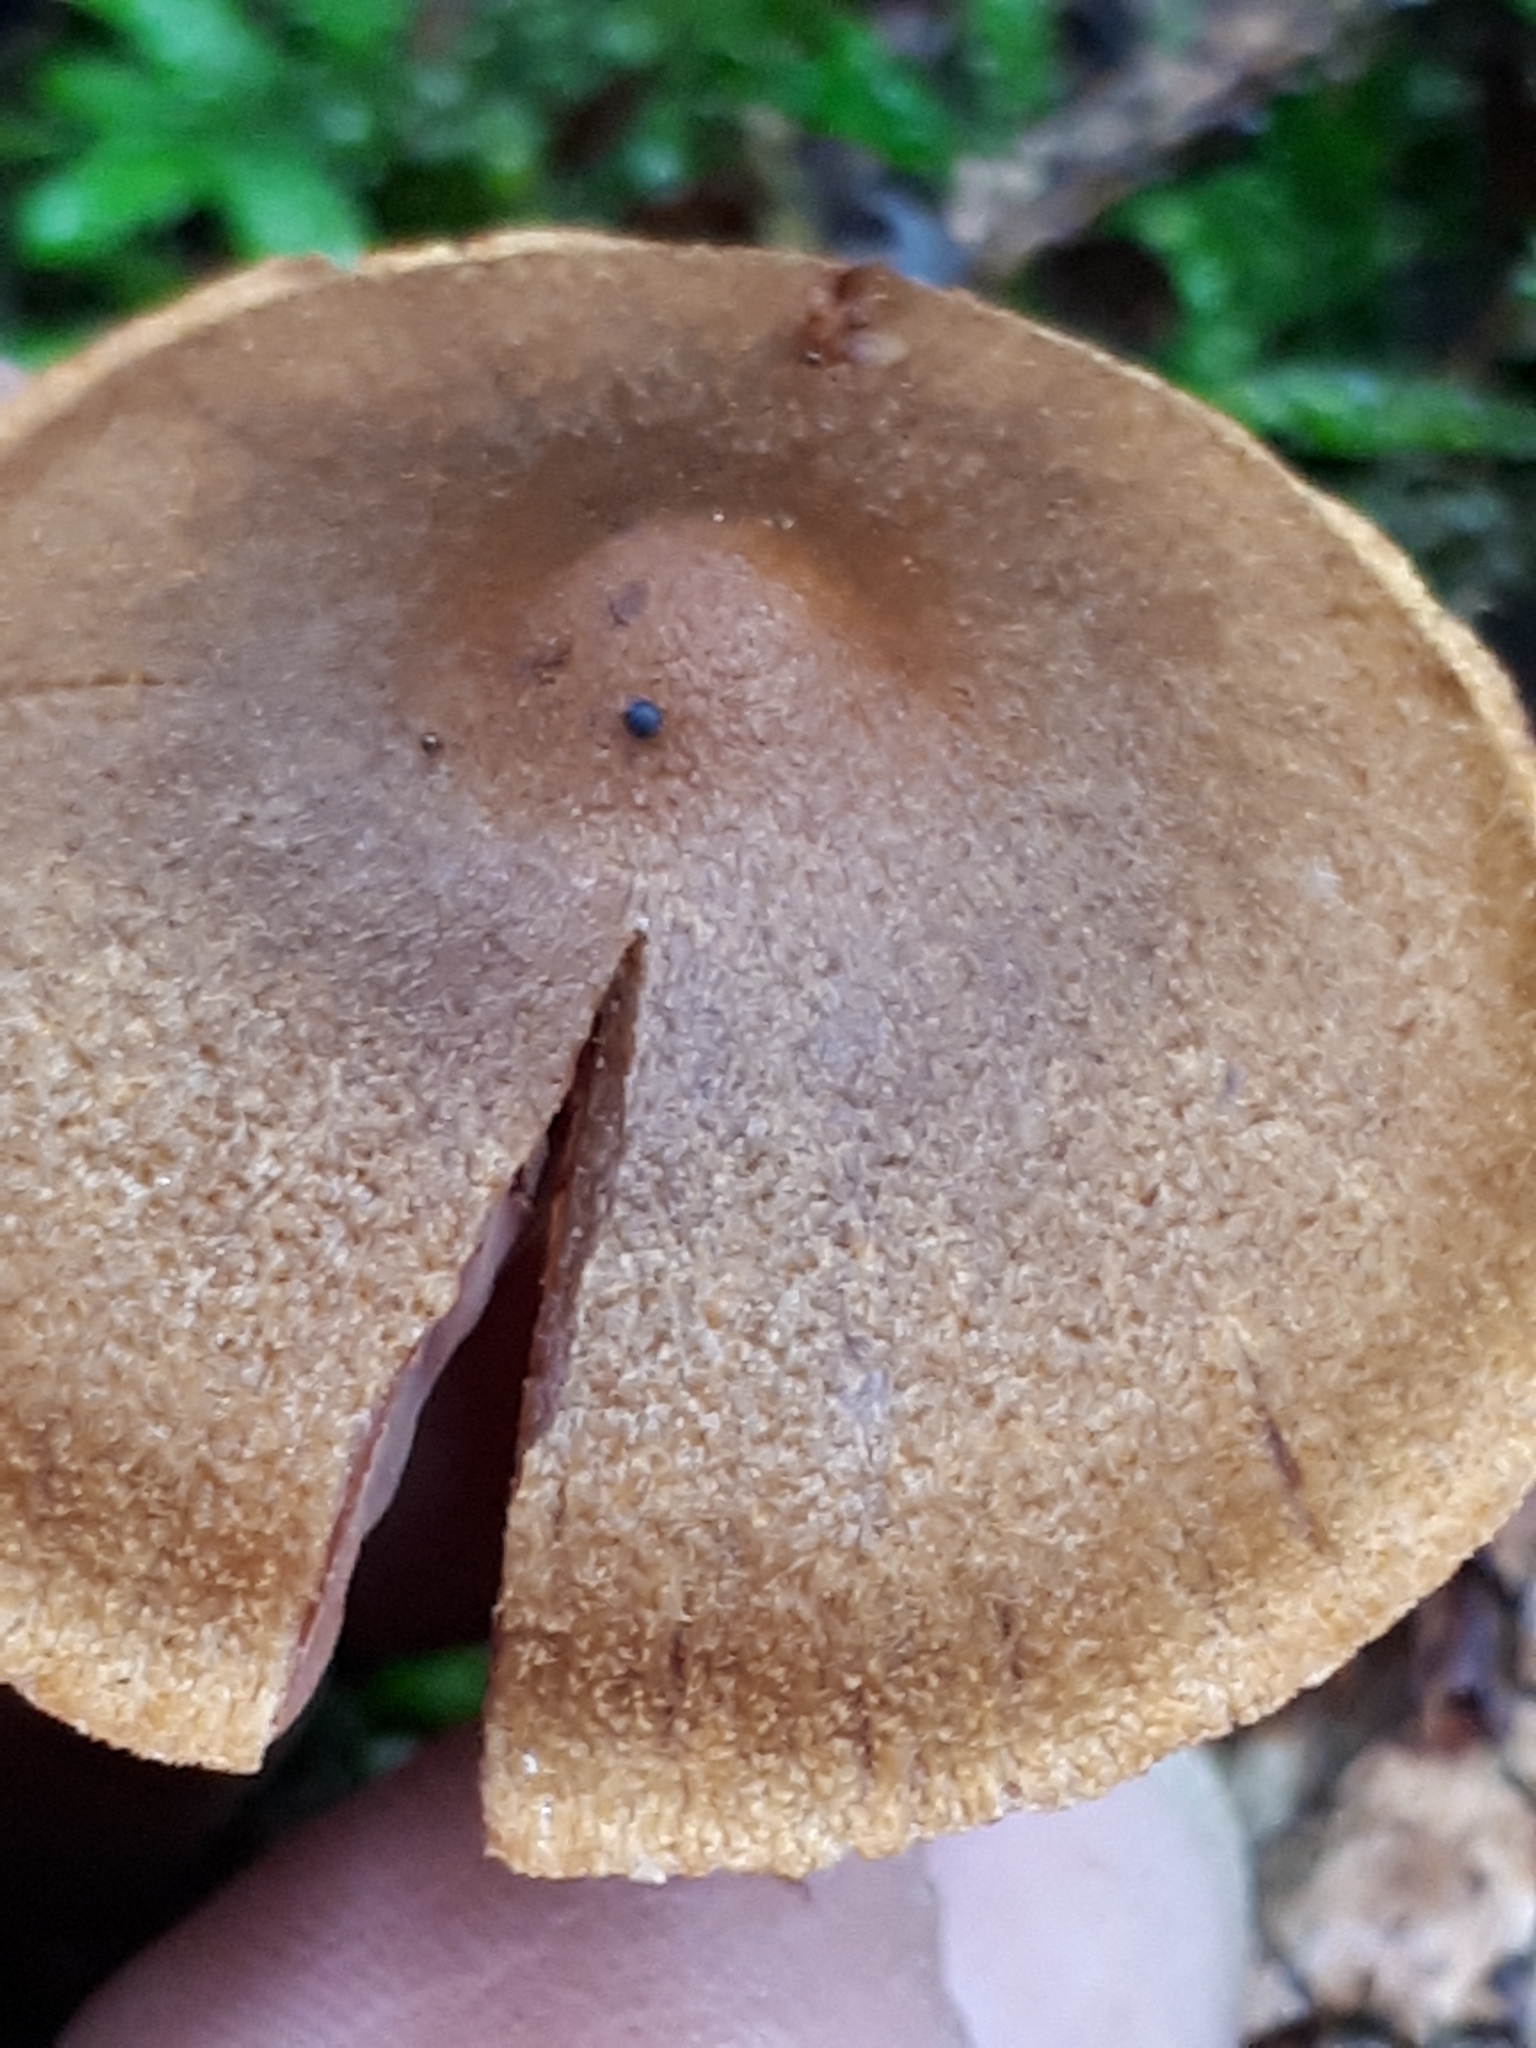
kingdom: Fungi
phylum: Basidiomycota
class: Agaricomycetes
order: Agaricales
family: Cortinariaceae
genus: Cortinarius
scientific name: Cortinarius semisanguineus
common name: Surprise webcap
